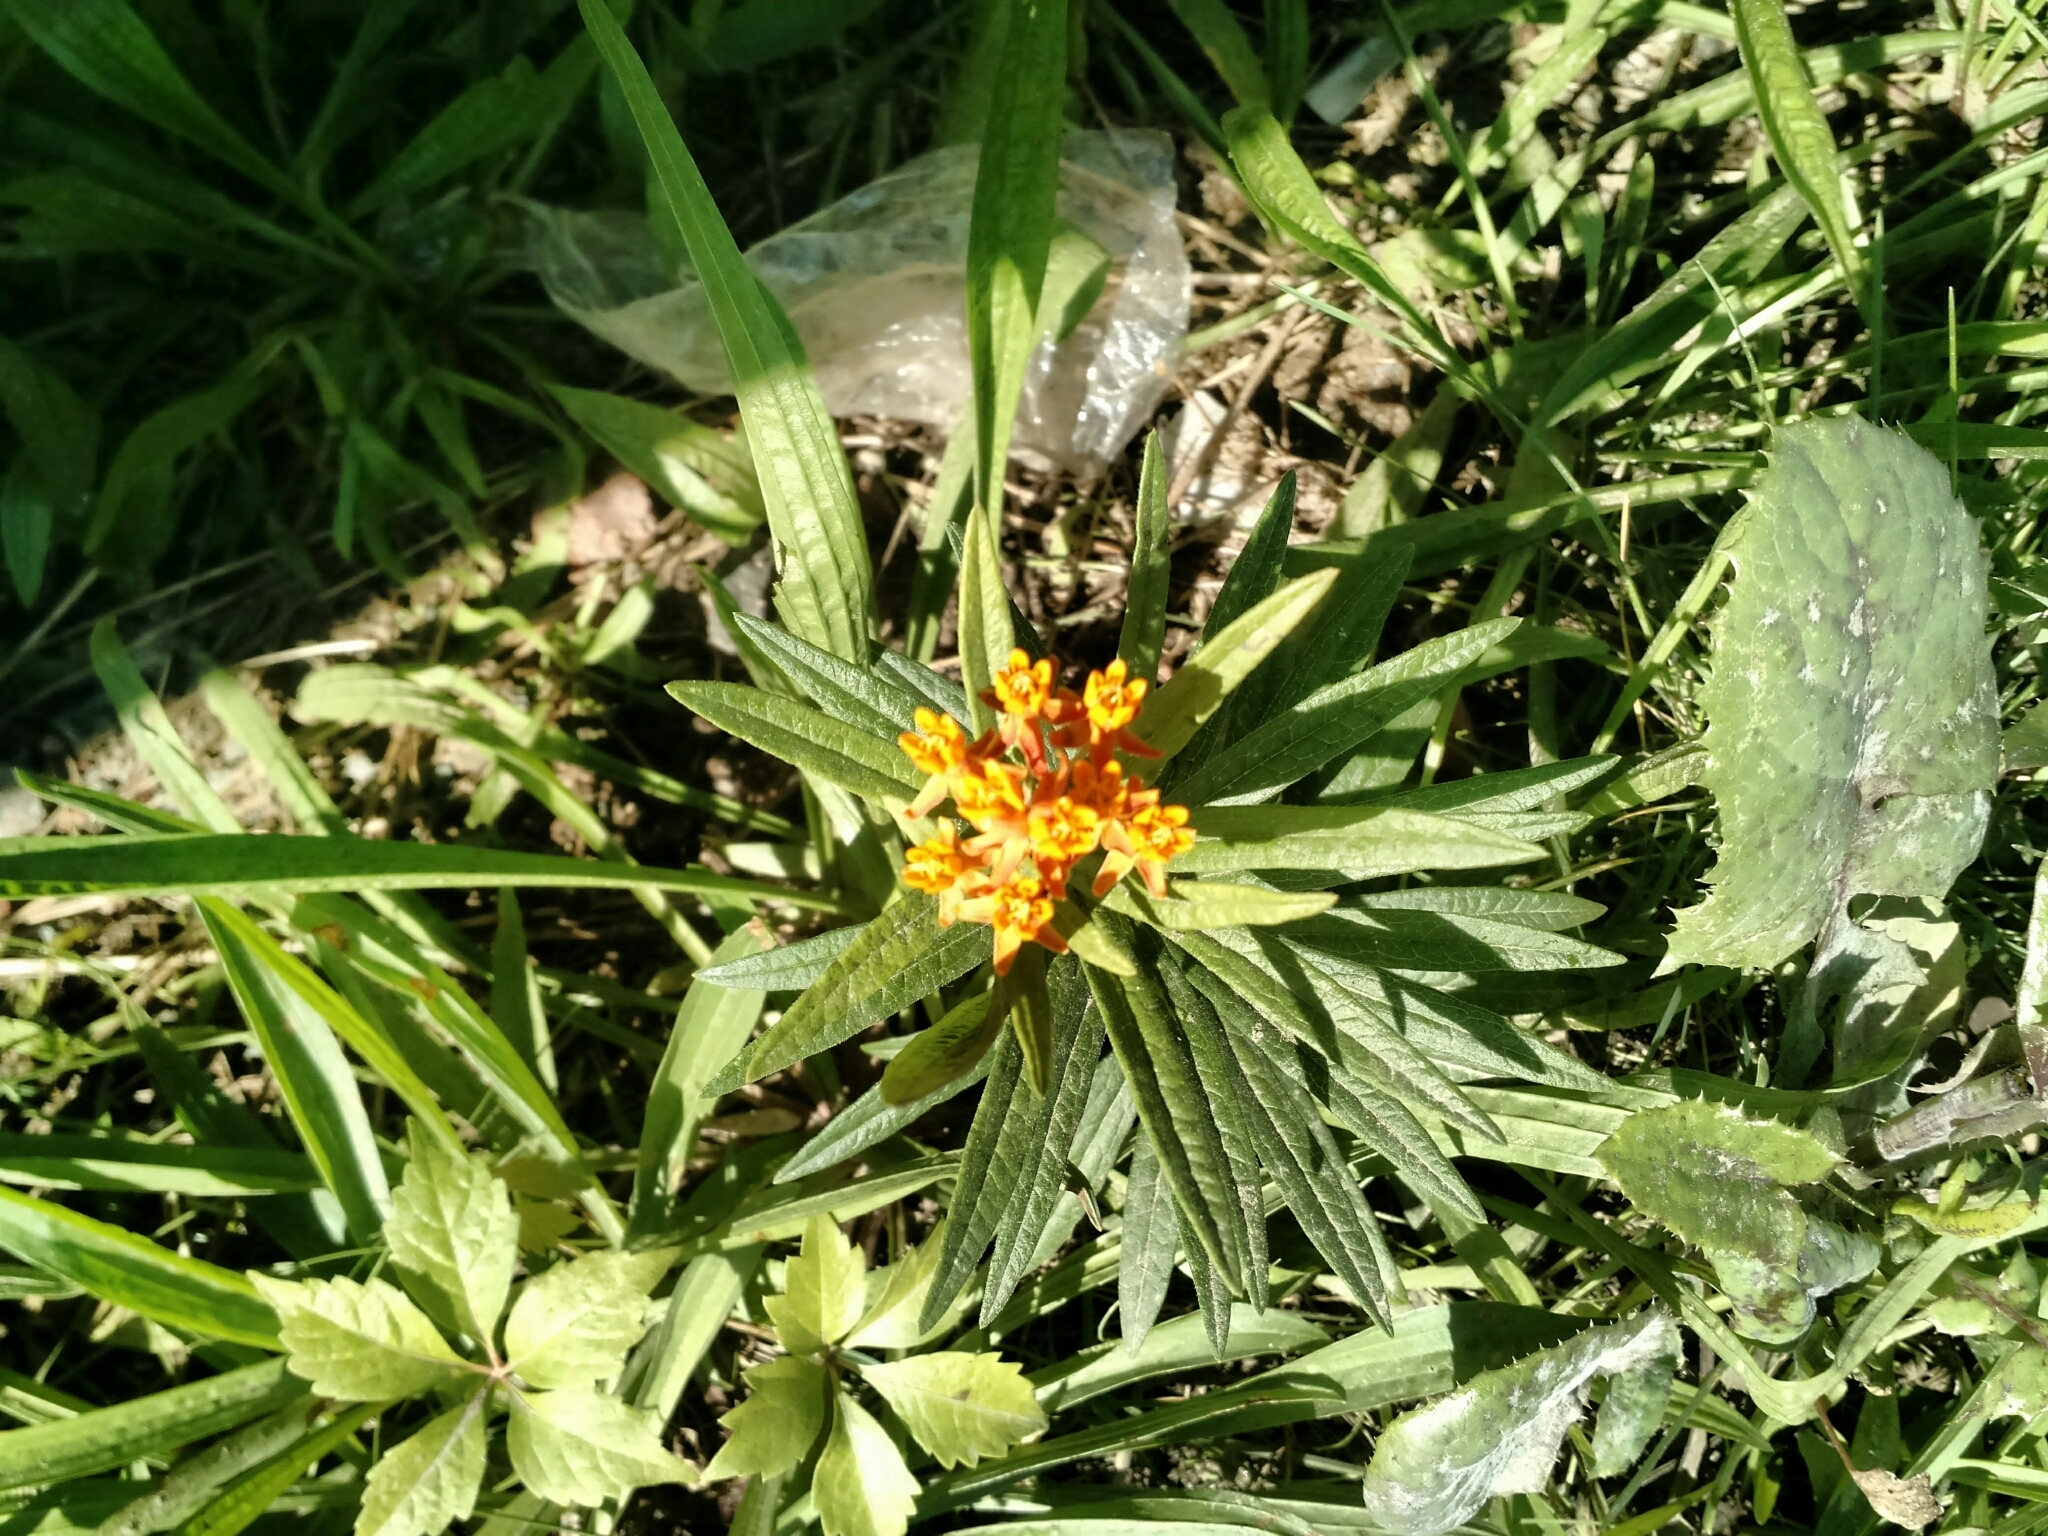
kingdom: Plantae
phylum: Tracheophyta
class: Magnoliopsida
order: Gentianales
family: Apocynaceae
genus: Asclepias
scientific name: Asclepias tuberosa
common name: Butterfly milkweed
